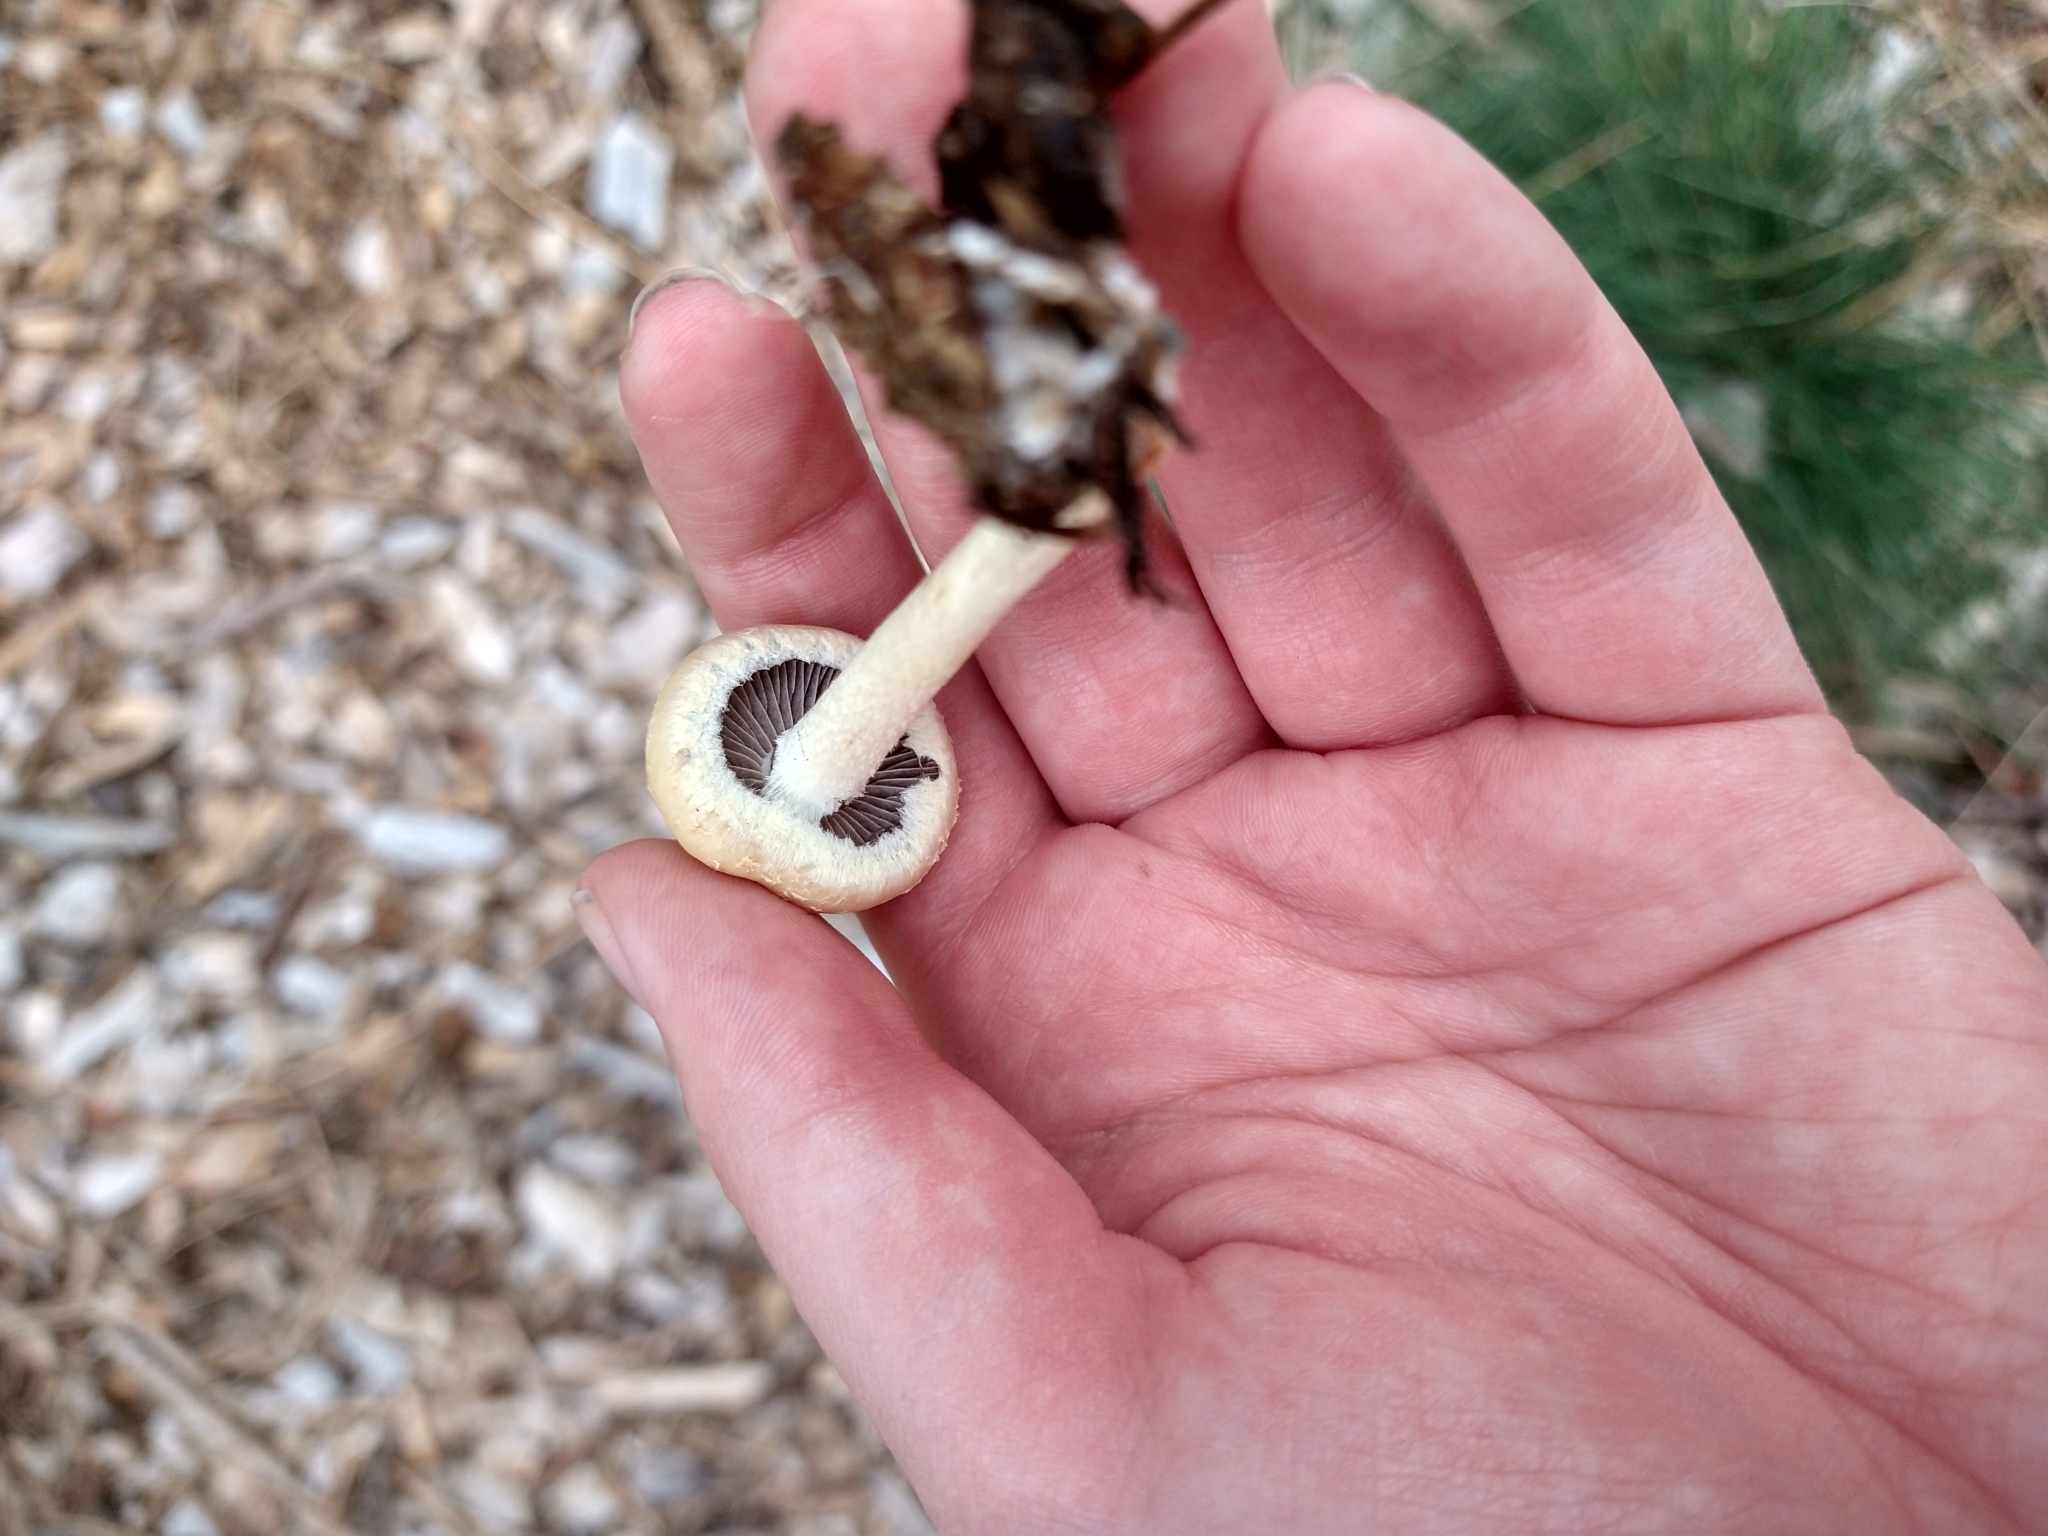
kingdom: Fungi
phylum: Basidiomycota
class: Agaricomycetes
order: Agaricales
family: Strophariaceae
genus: Agrocybe
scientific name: Agrocybe praecox
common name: Spring fieldcap
